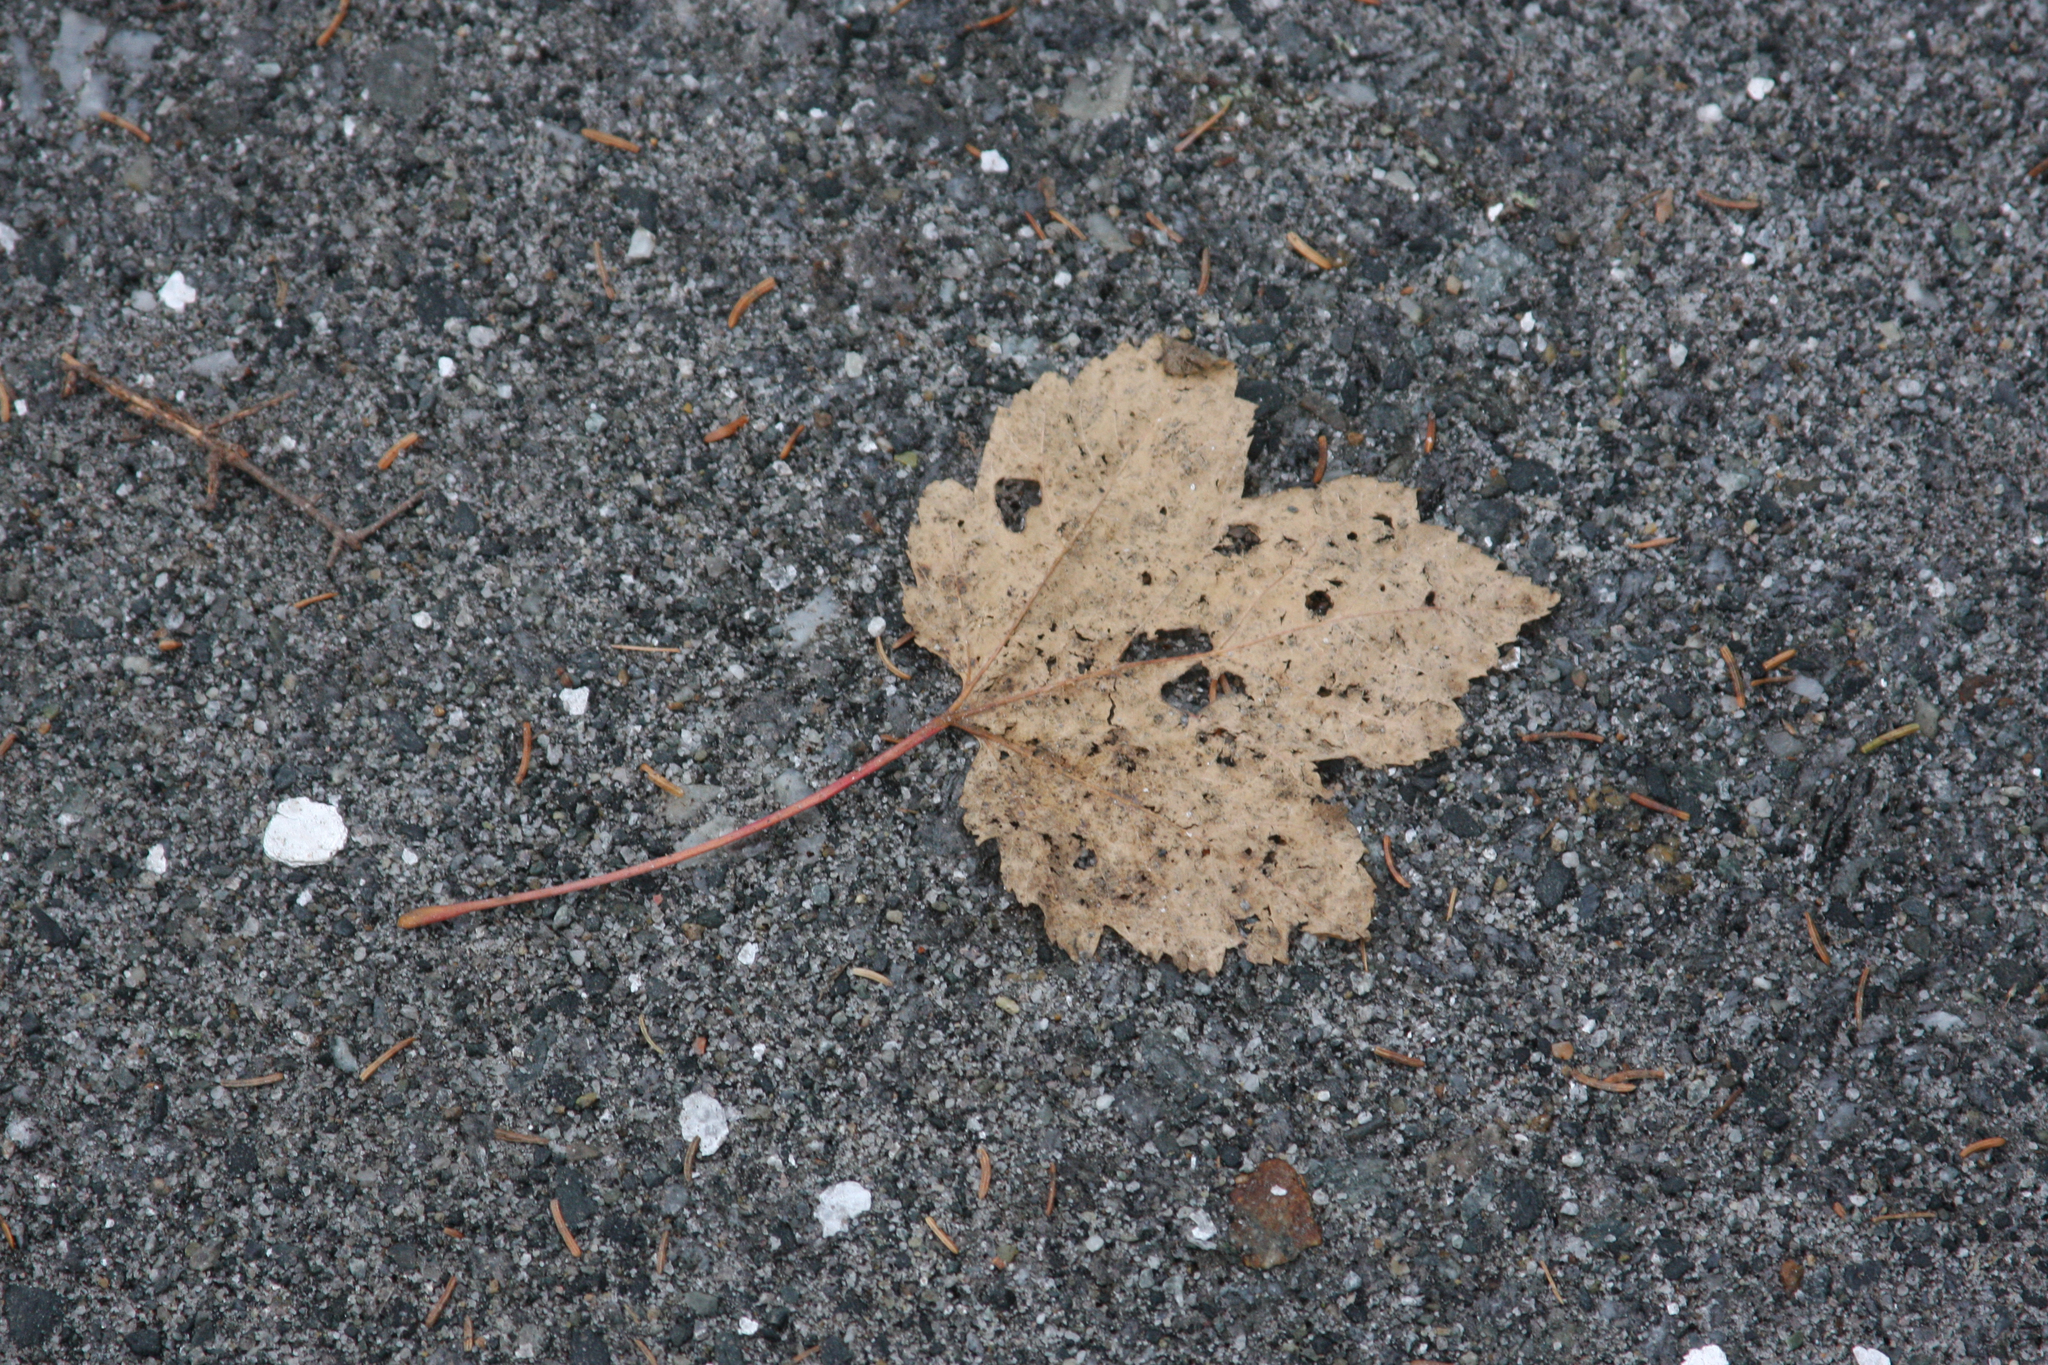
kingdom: Plantae
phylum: Tracheophyta
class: Magnoliopsida
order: Sapindales
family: Sapindaceae
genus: Acer
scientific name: Acer rubrum
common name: Red maple
